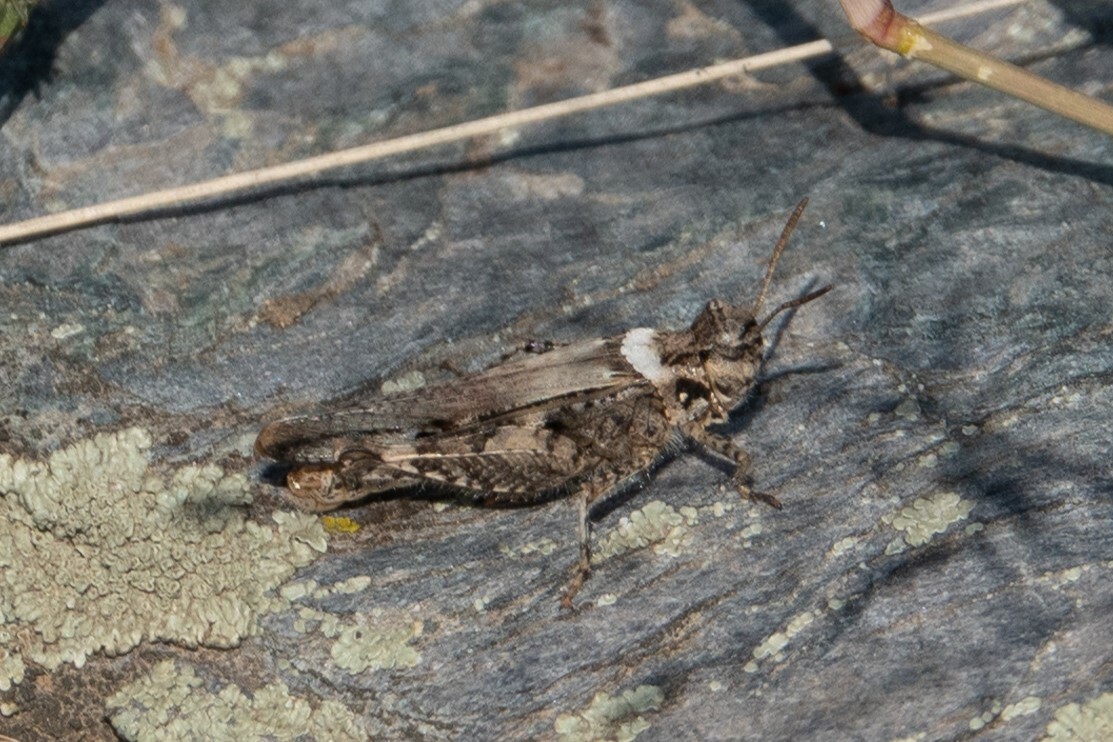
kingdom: Animalia
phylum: Arthropoda
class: Insecta
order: Orthoptera
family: Acrididae
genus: Acrotylus
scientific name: Acrotylus insubricus
